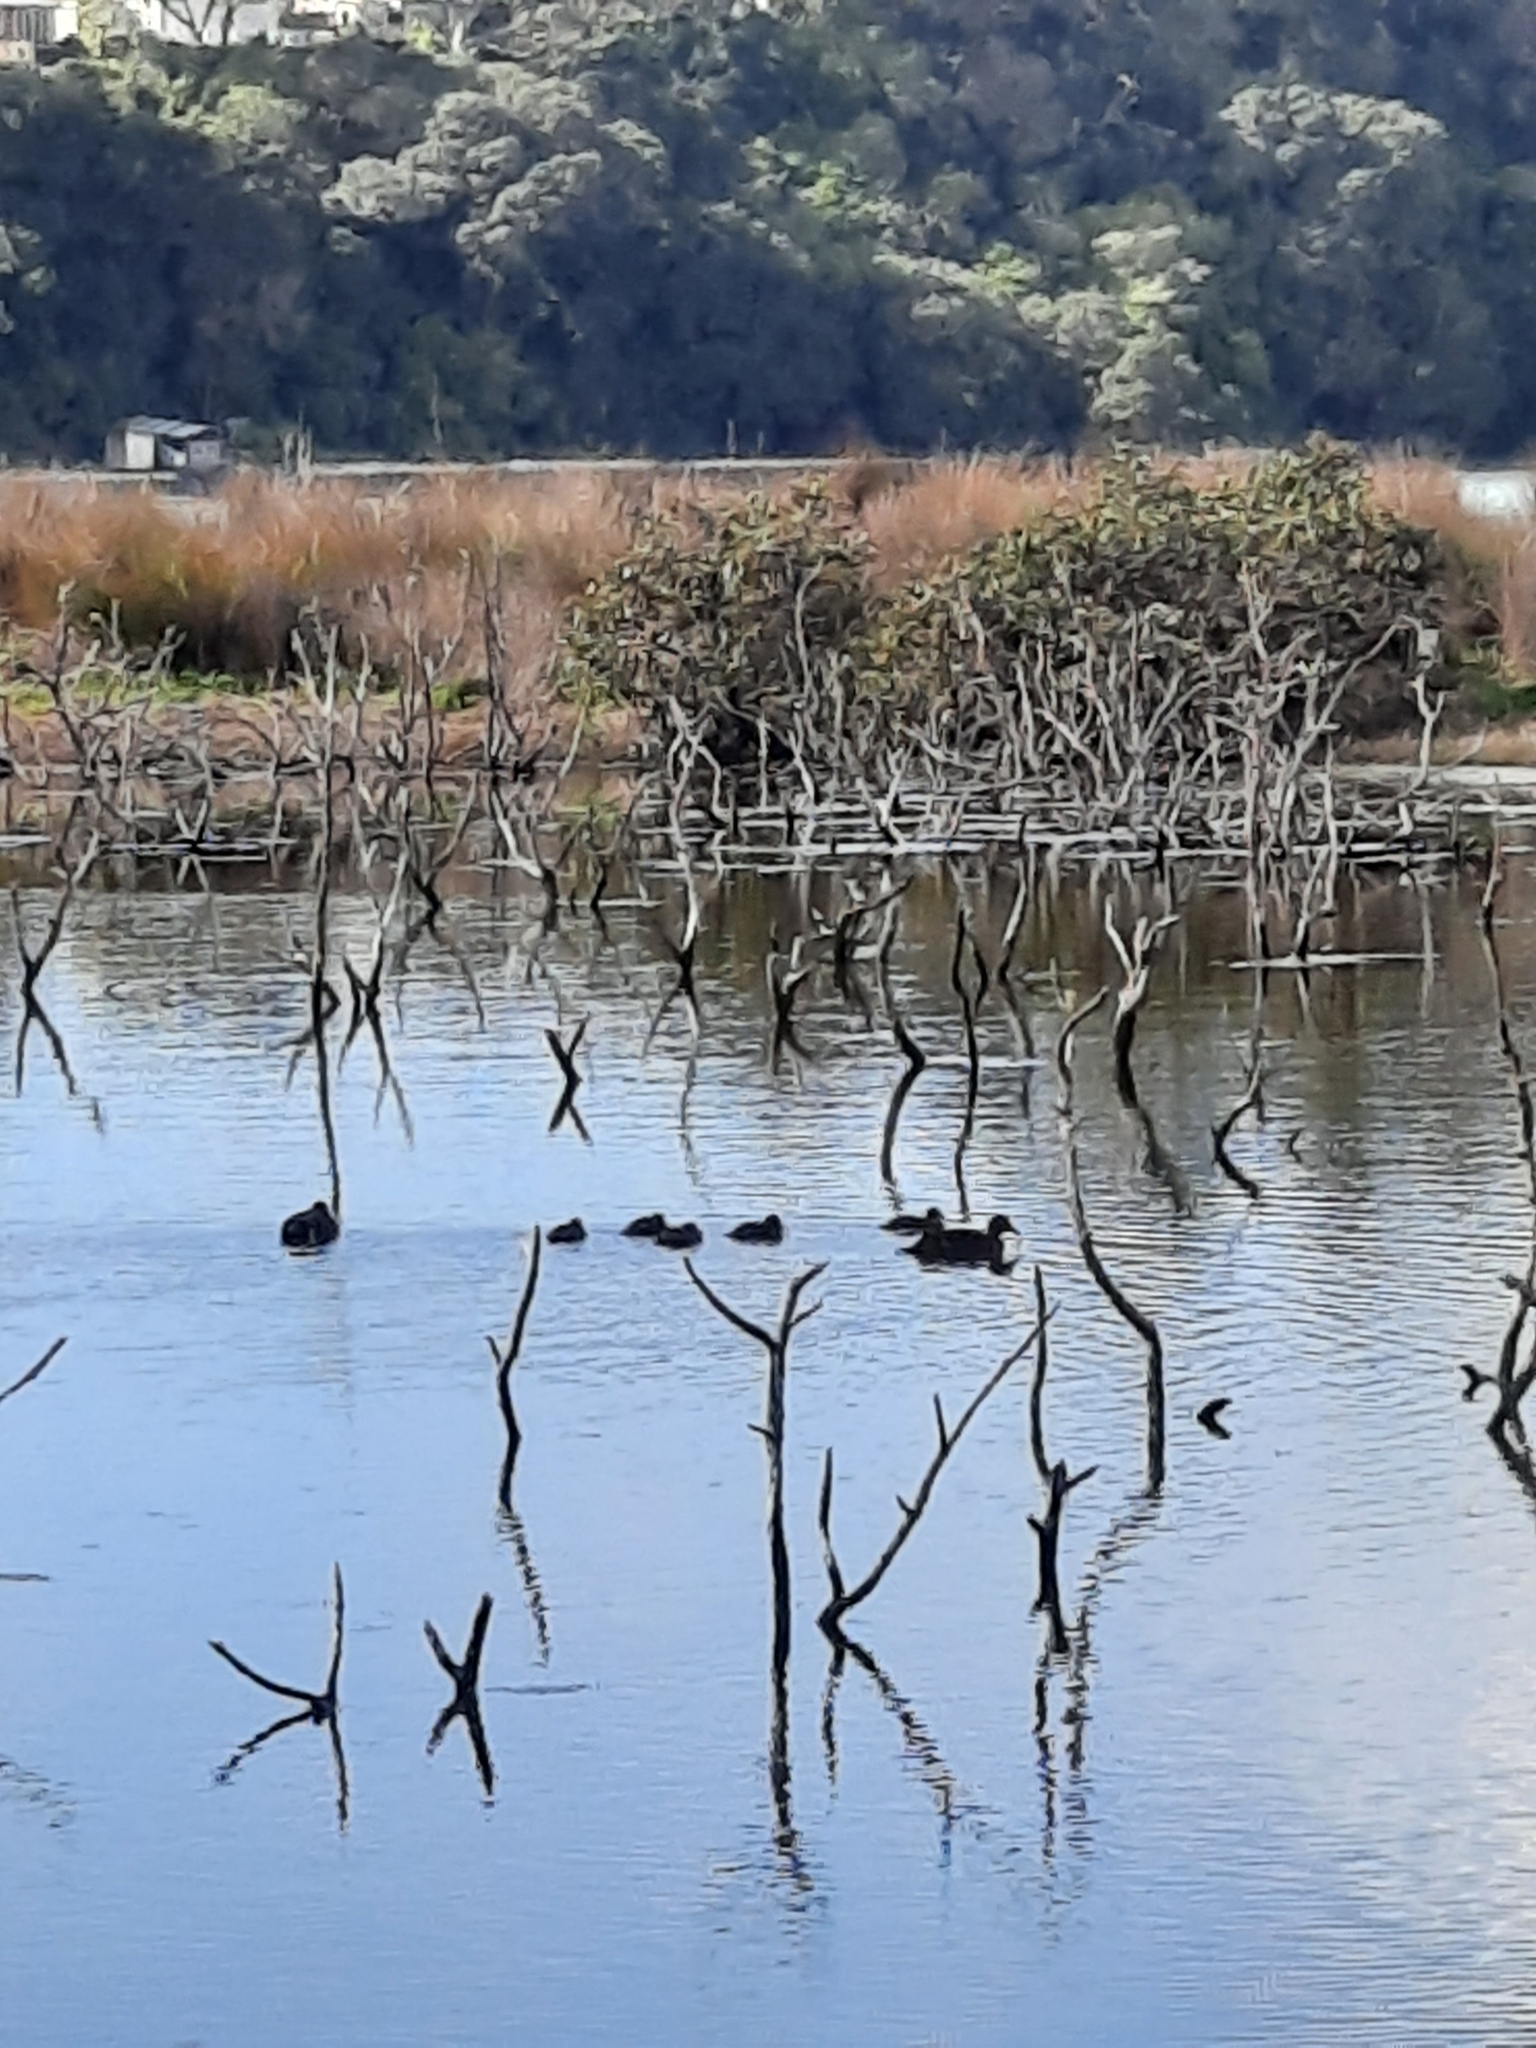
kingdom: Animalia
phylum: Chordata
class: Aves
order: Anseriformes
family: Anatidae
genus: Anas
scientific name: Anas chlorotis
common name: Brown teal
